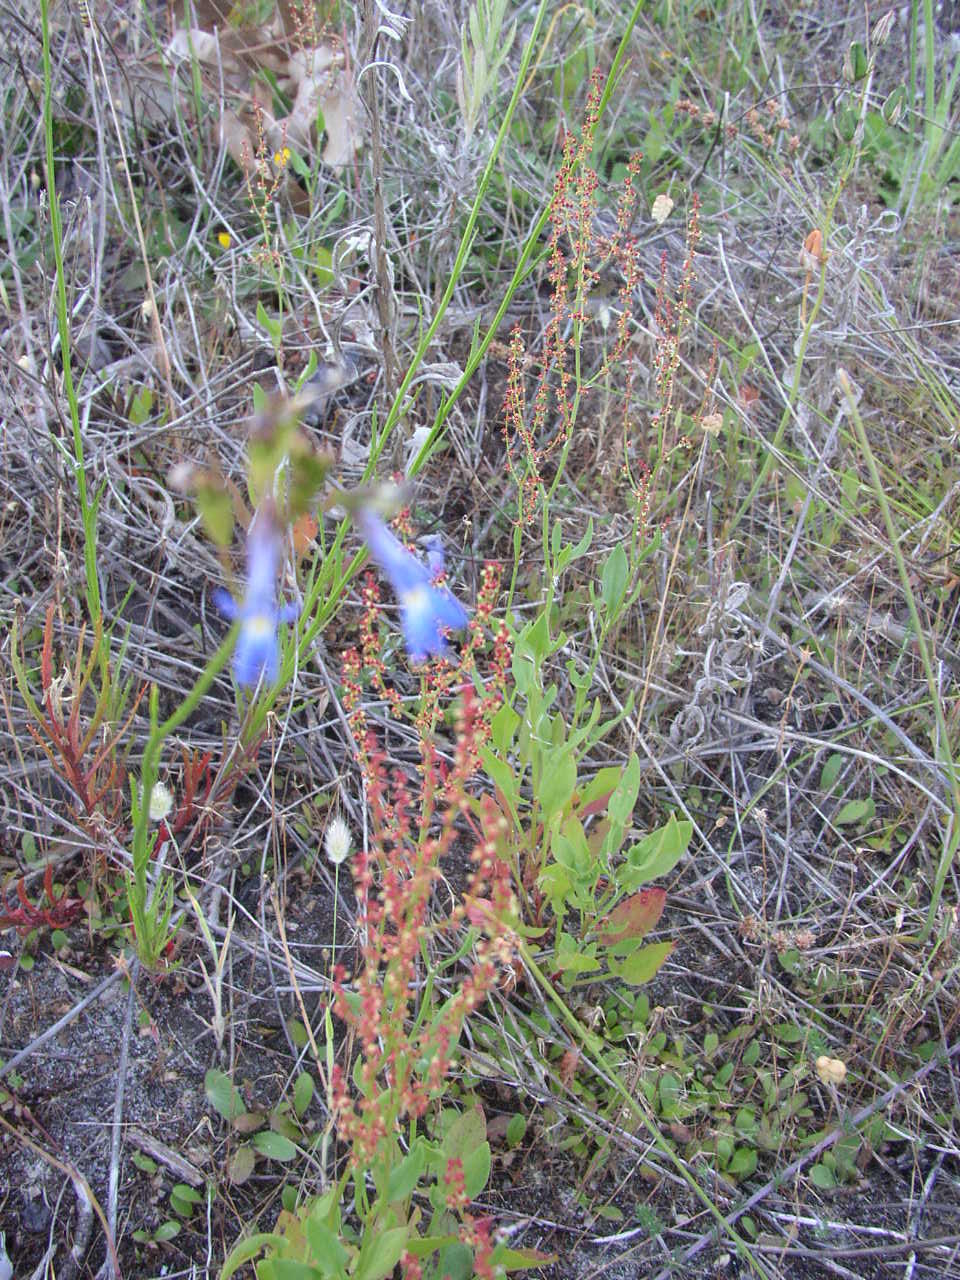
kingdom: Plantae
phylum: Tracheophyta
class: Magnoliopsida
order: Asterales
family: Campanulaceae
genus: Lobelia
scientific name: Lobelia comosa
